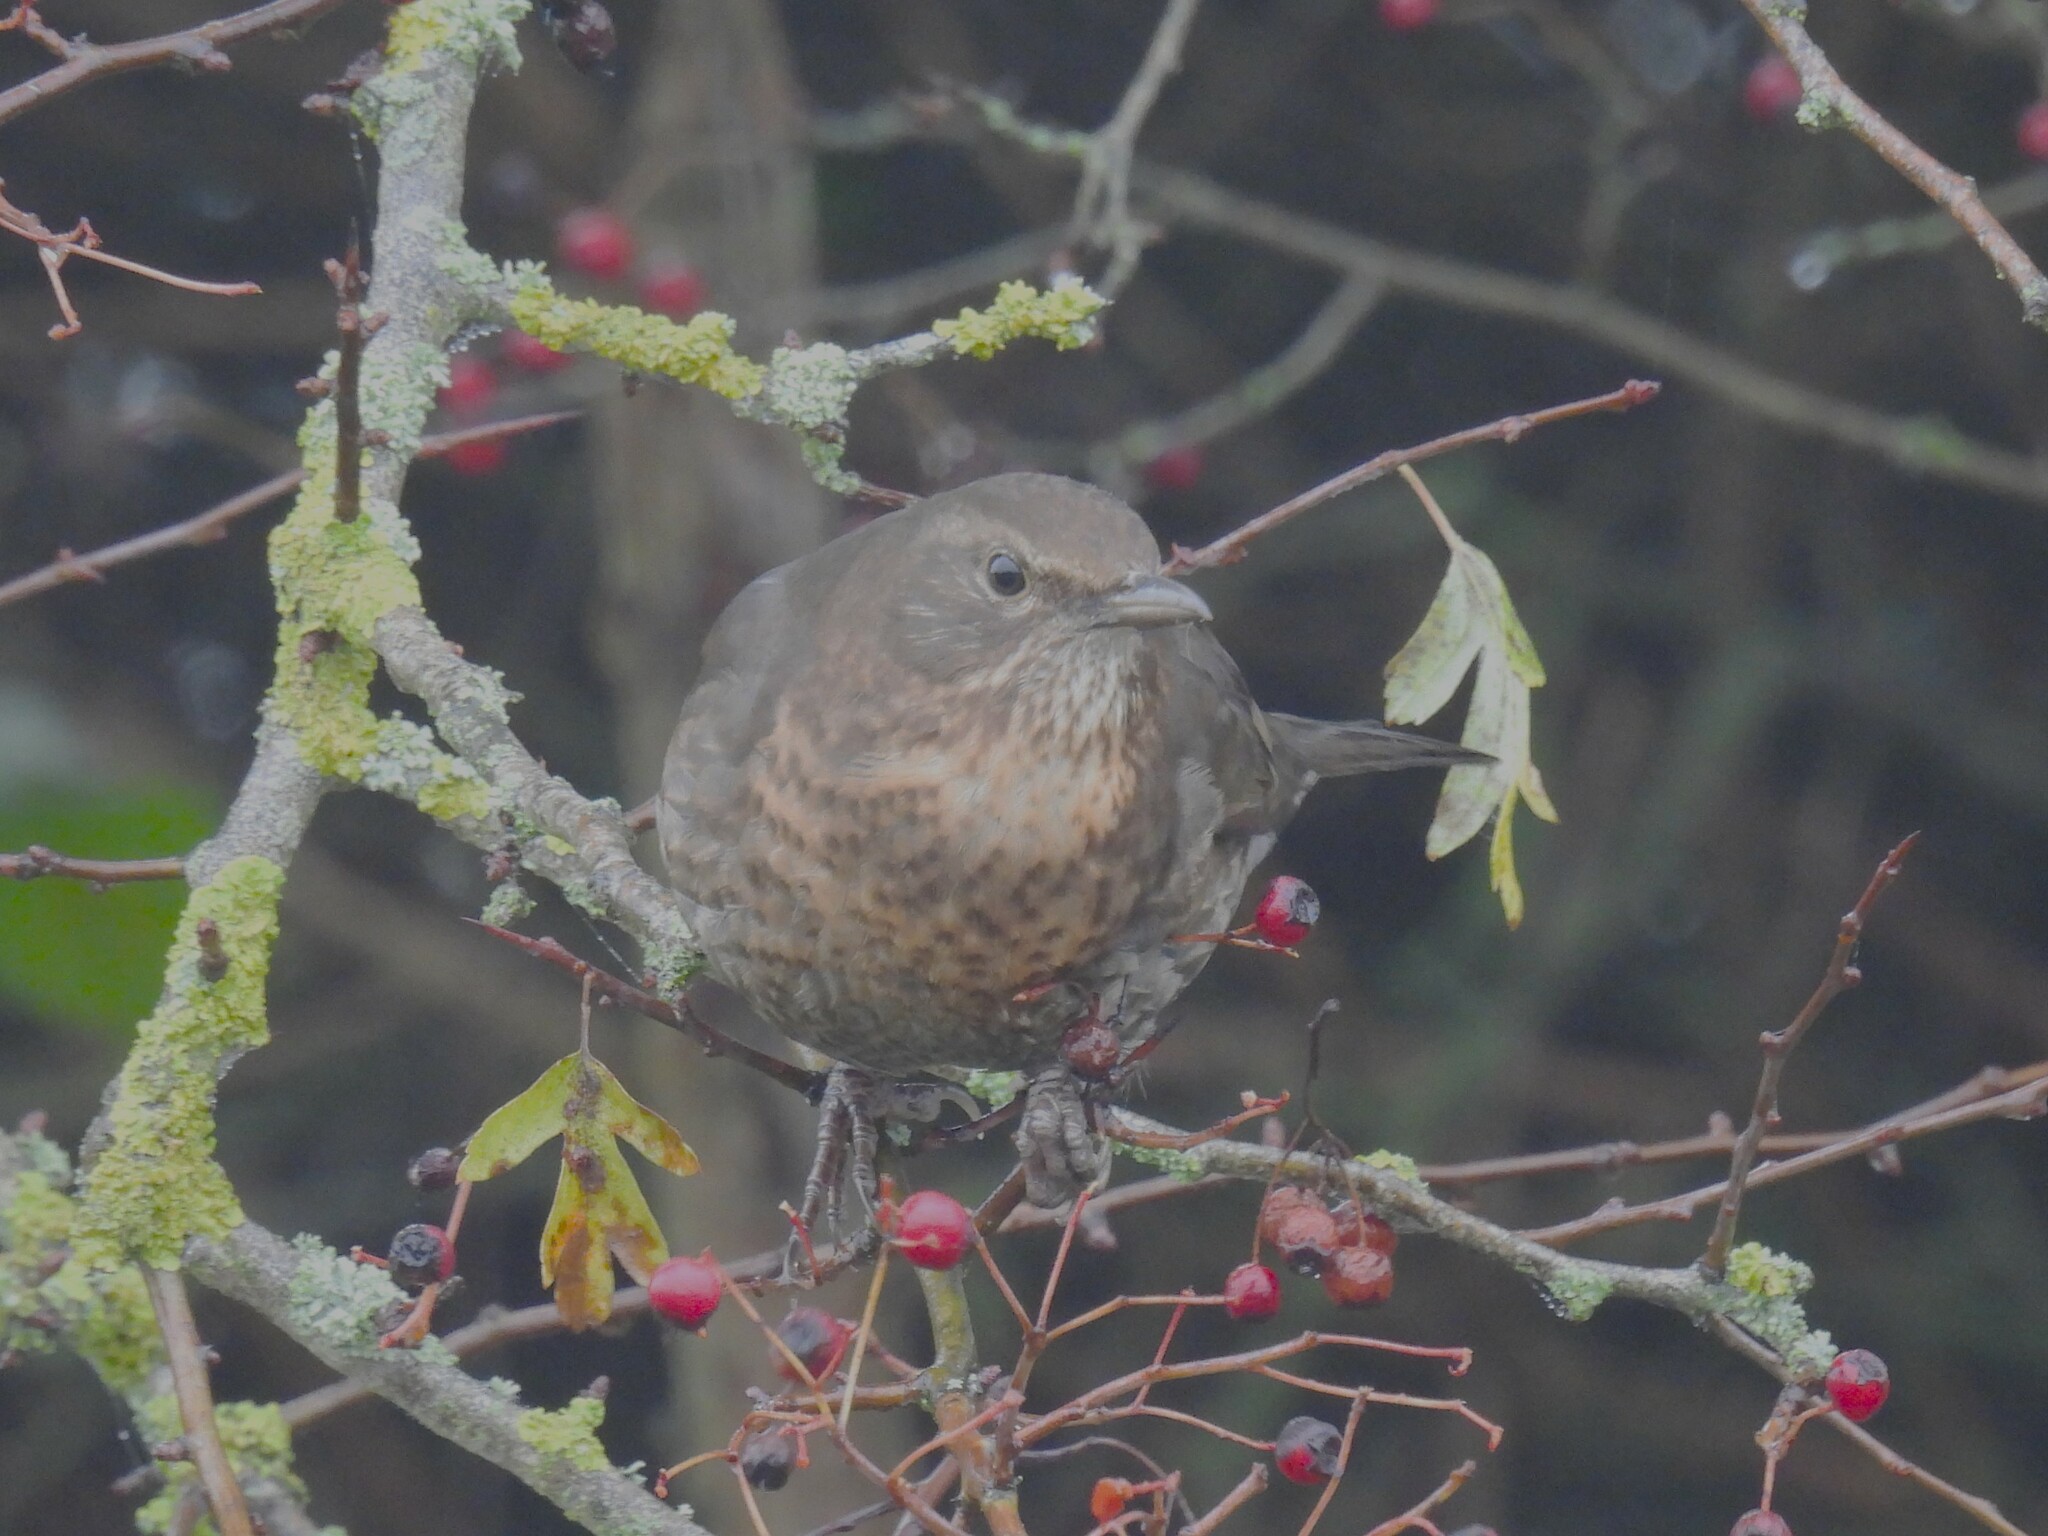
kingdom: Animalia
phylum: Chordata
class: Aves
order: Passeriformes
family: Turdidae
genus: Turdus
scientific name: Turdus merula
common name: Common blackbird
